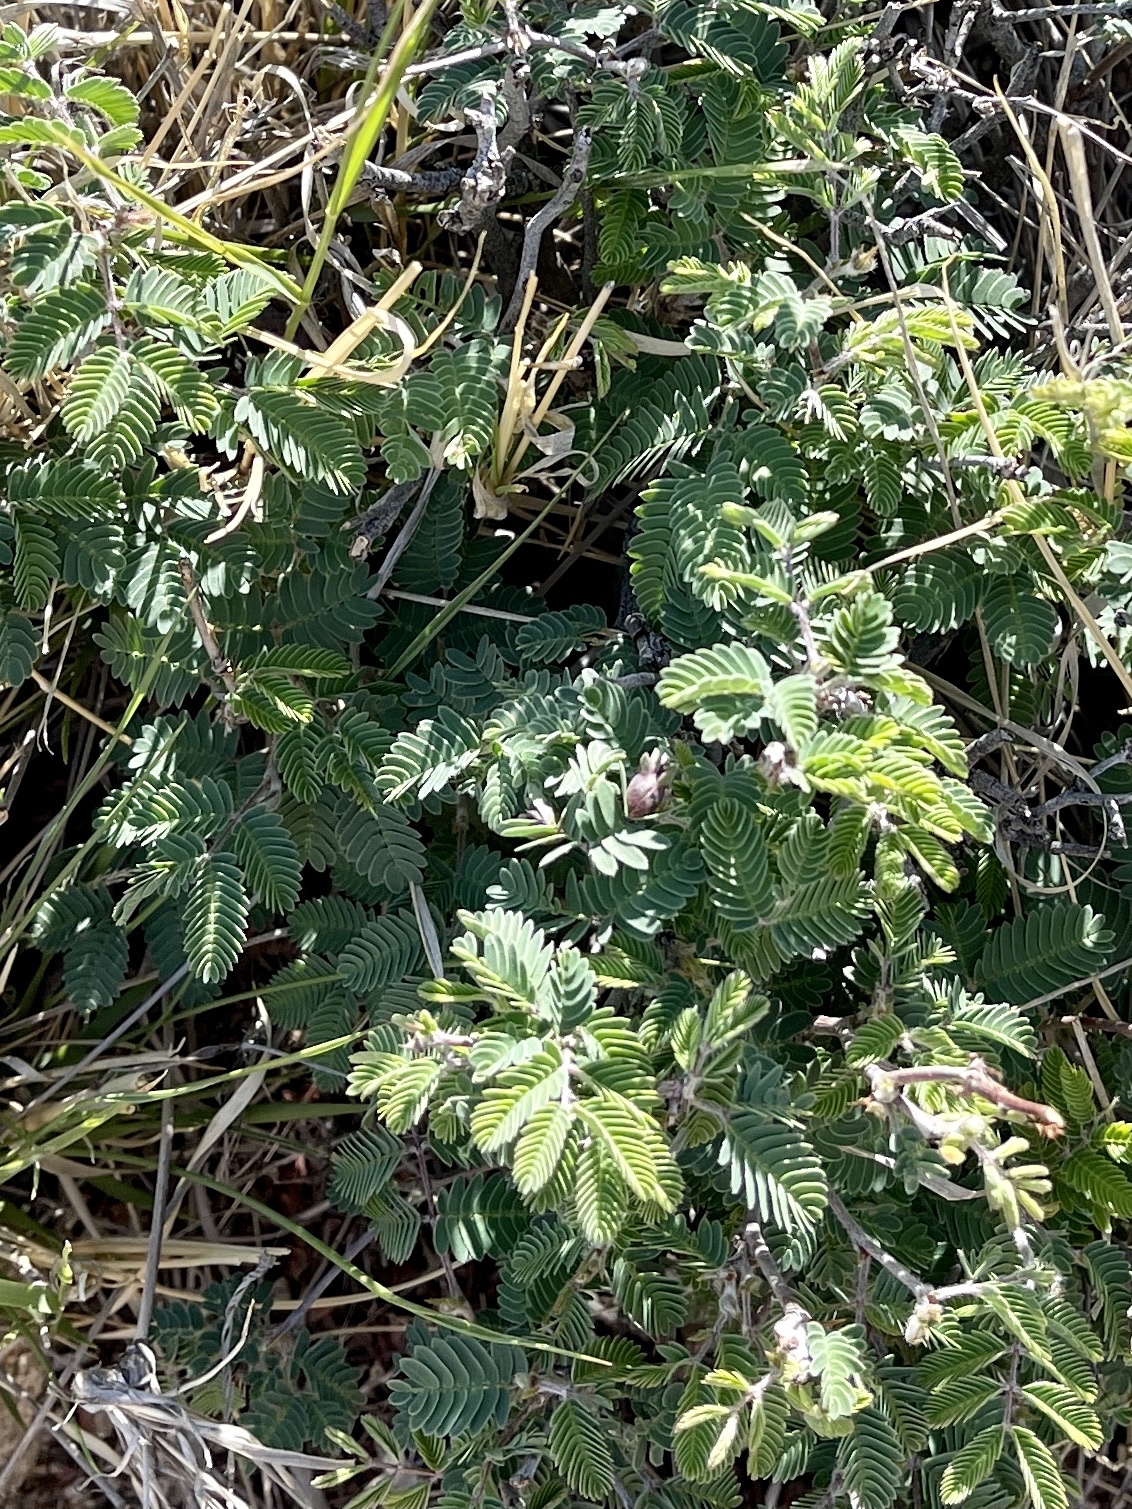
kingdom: Plantae
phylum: Tracheophyta
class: Magnoliopsida
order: Fabales
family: Fabaceae
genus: Calliandra
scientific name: Calliandra eriophylla
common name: Fairy-duster
